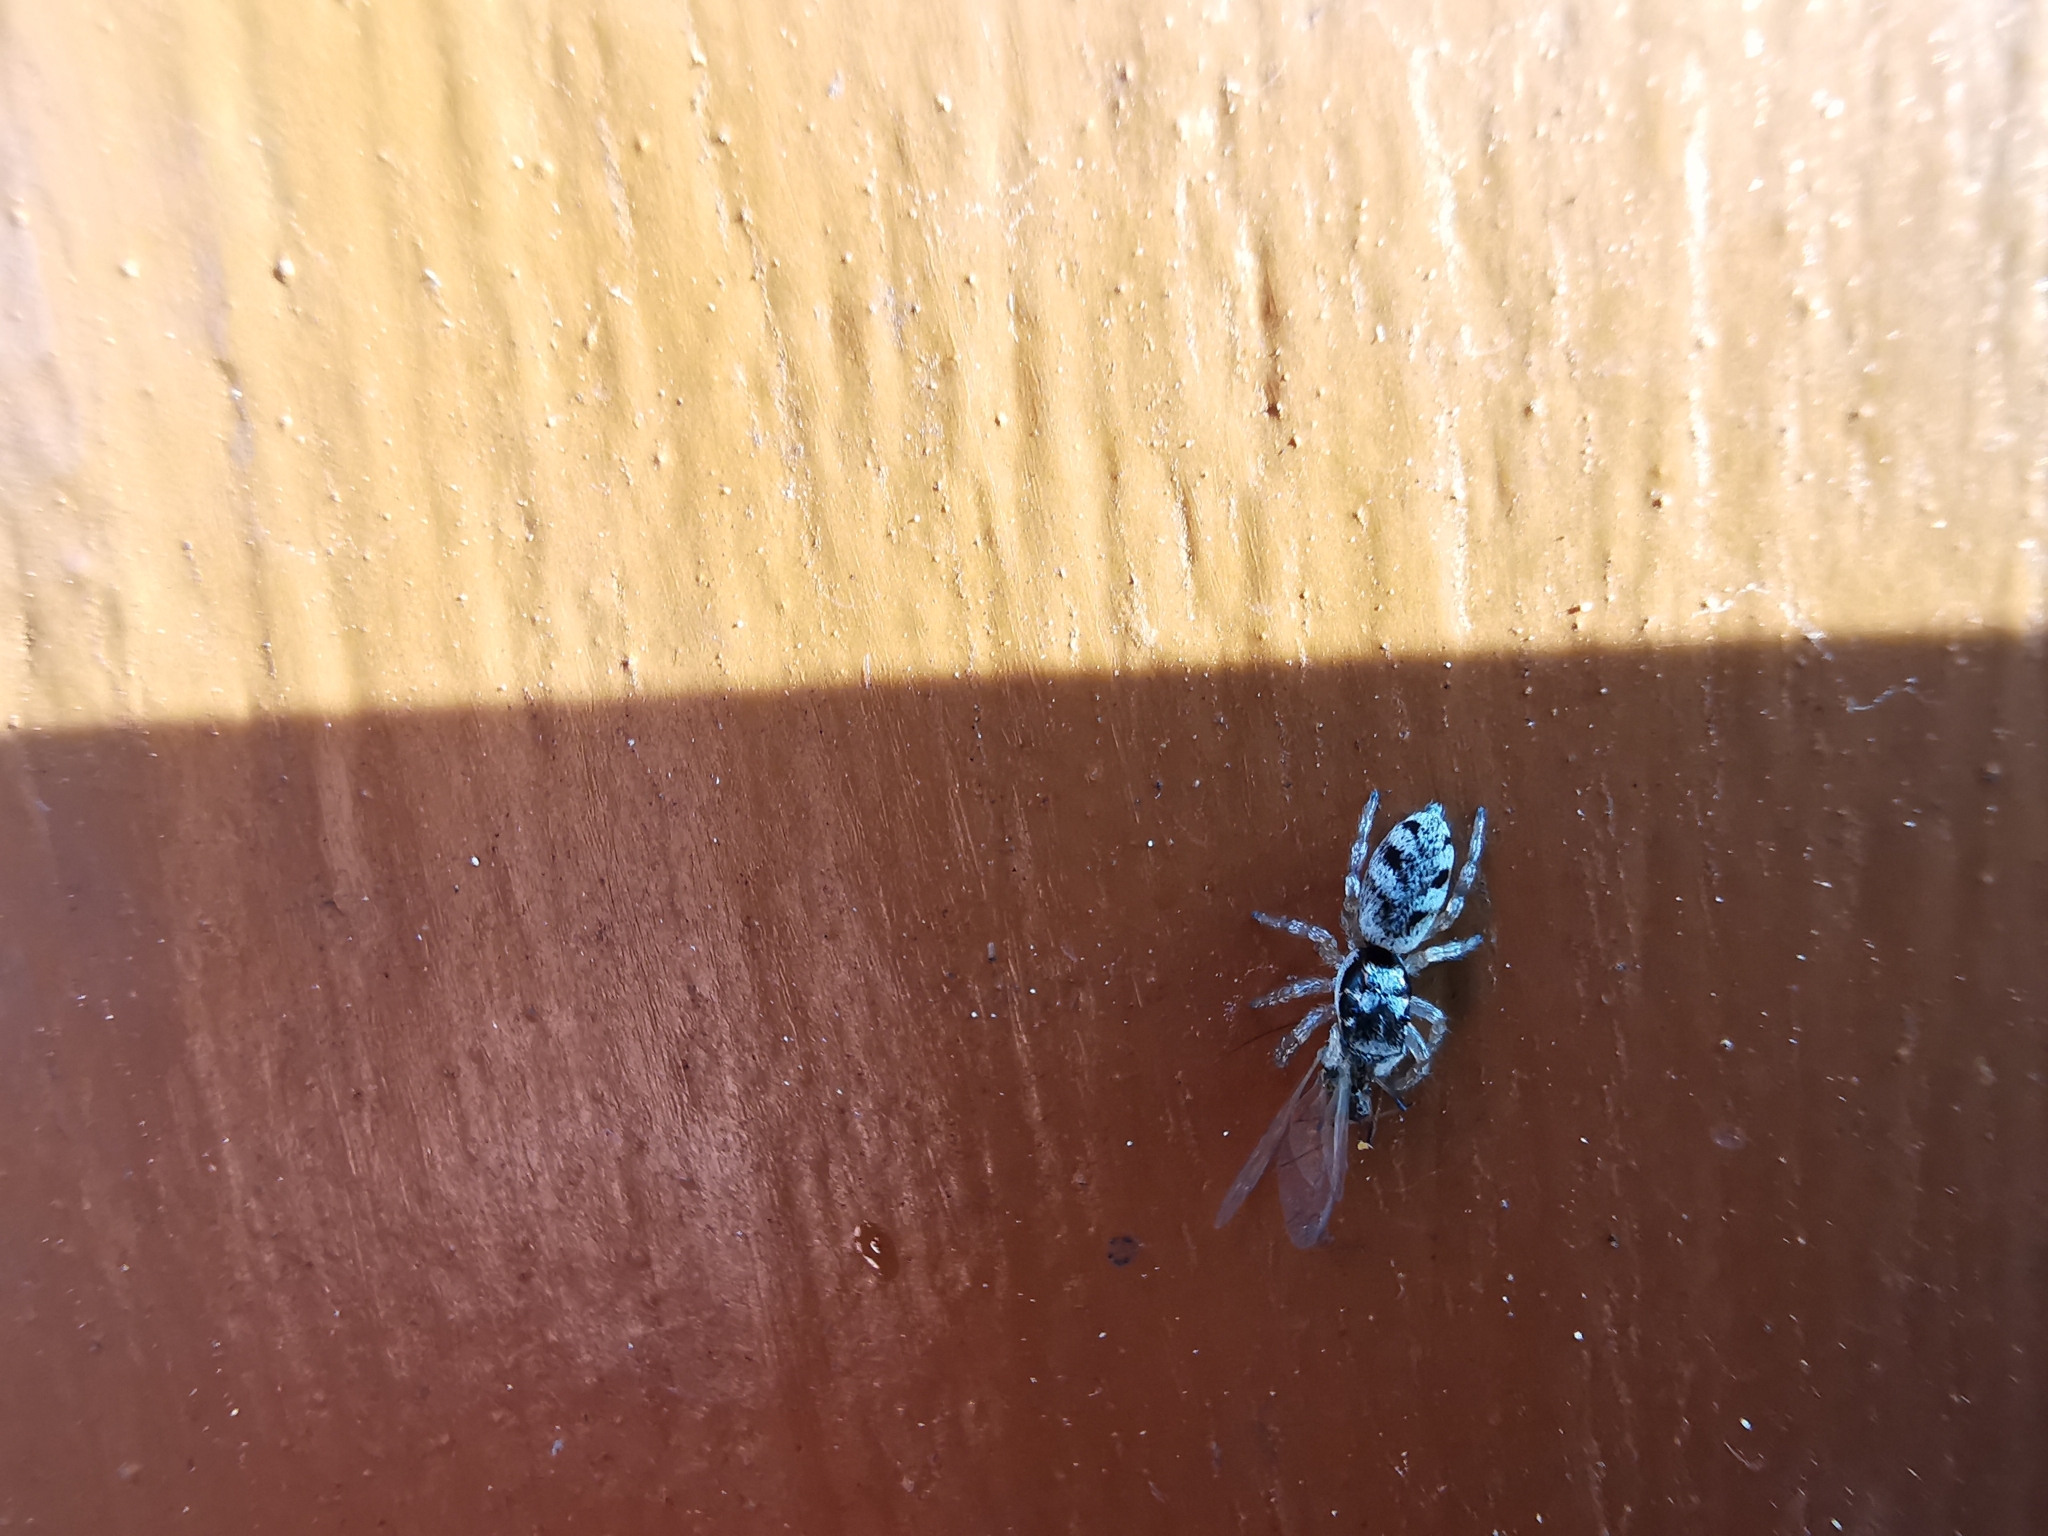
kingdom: Animalia
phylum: Arthropoda
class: Arachnida
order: Araneae
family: Salticidae
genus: Salticus
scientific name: Salticus cingulatus
